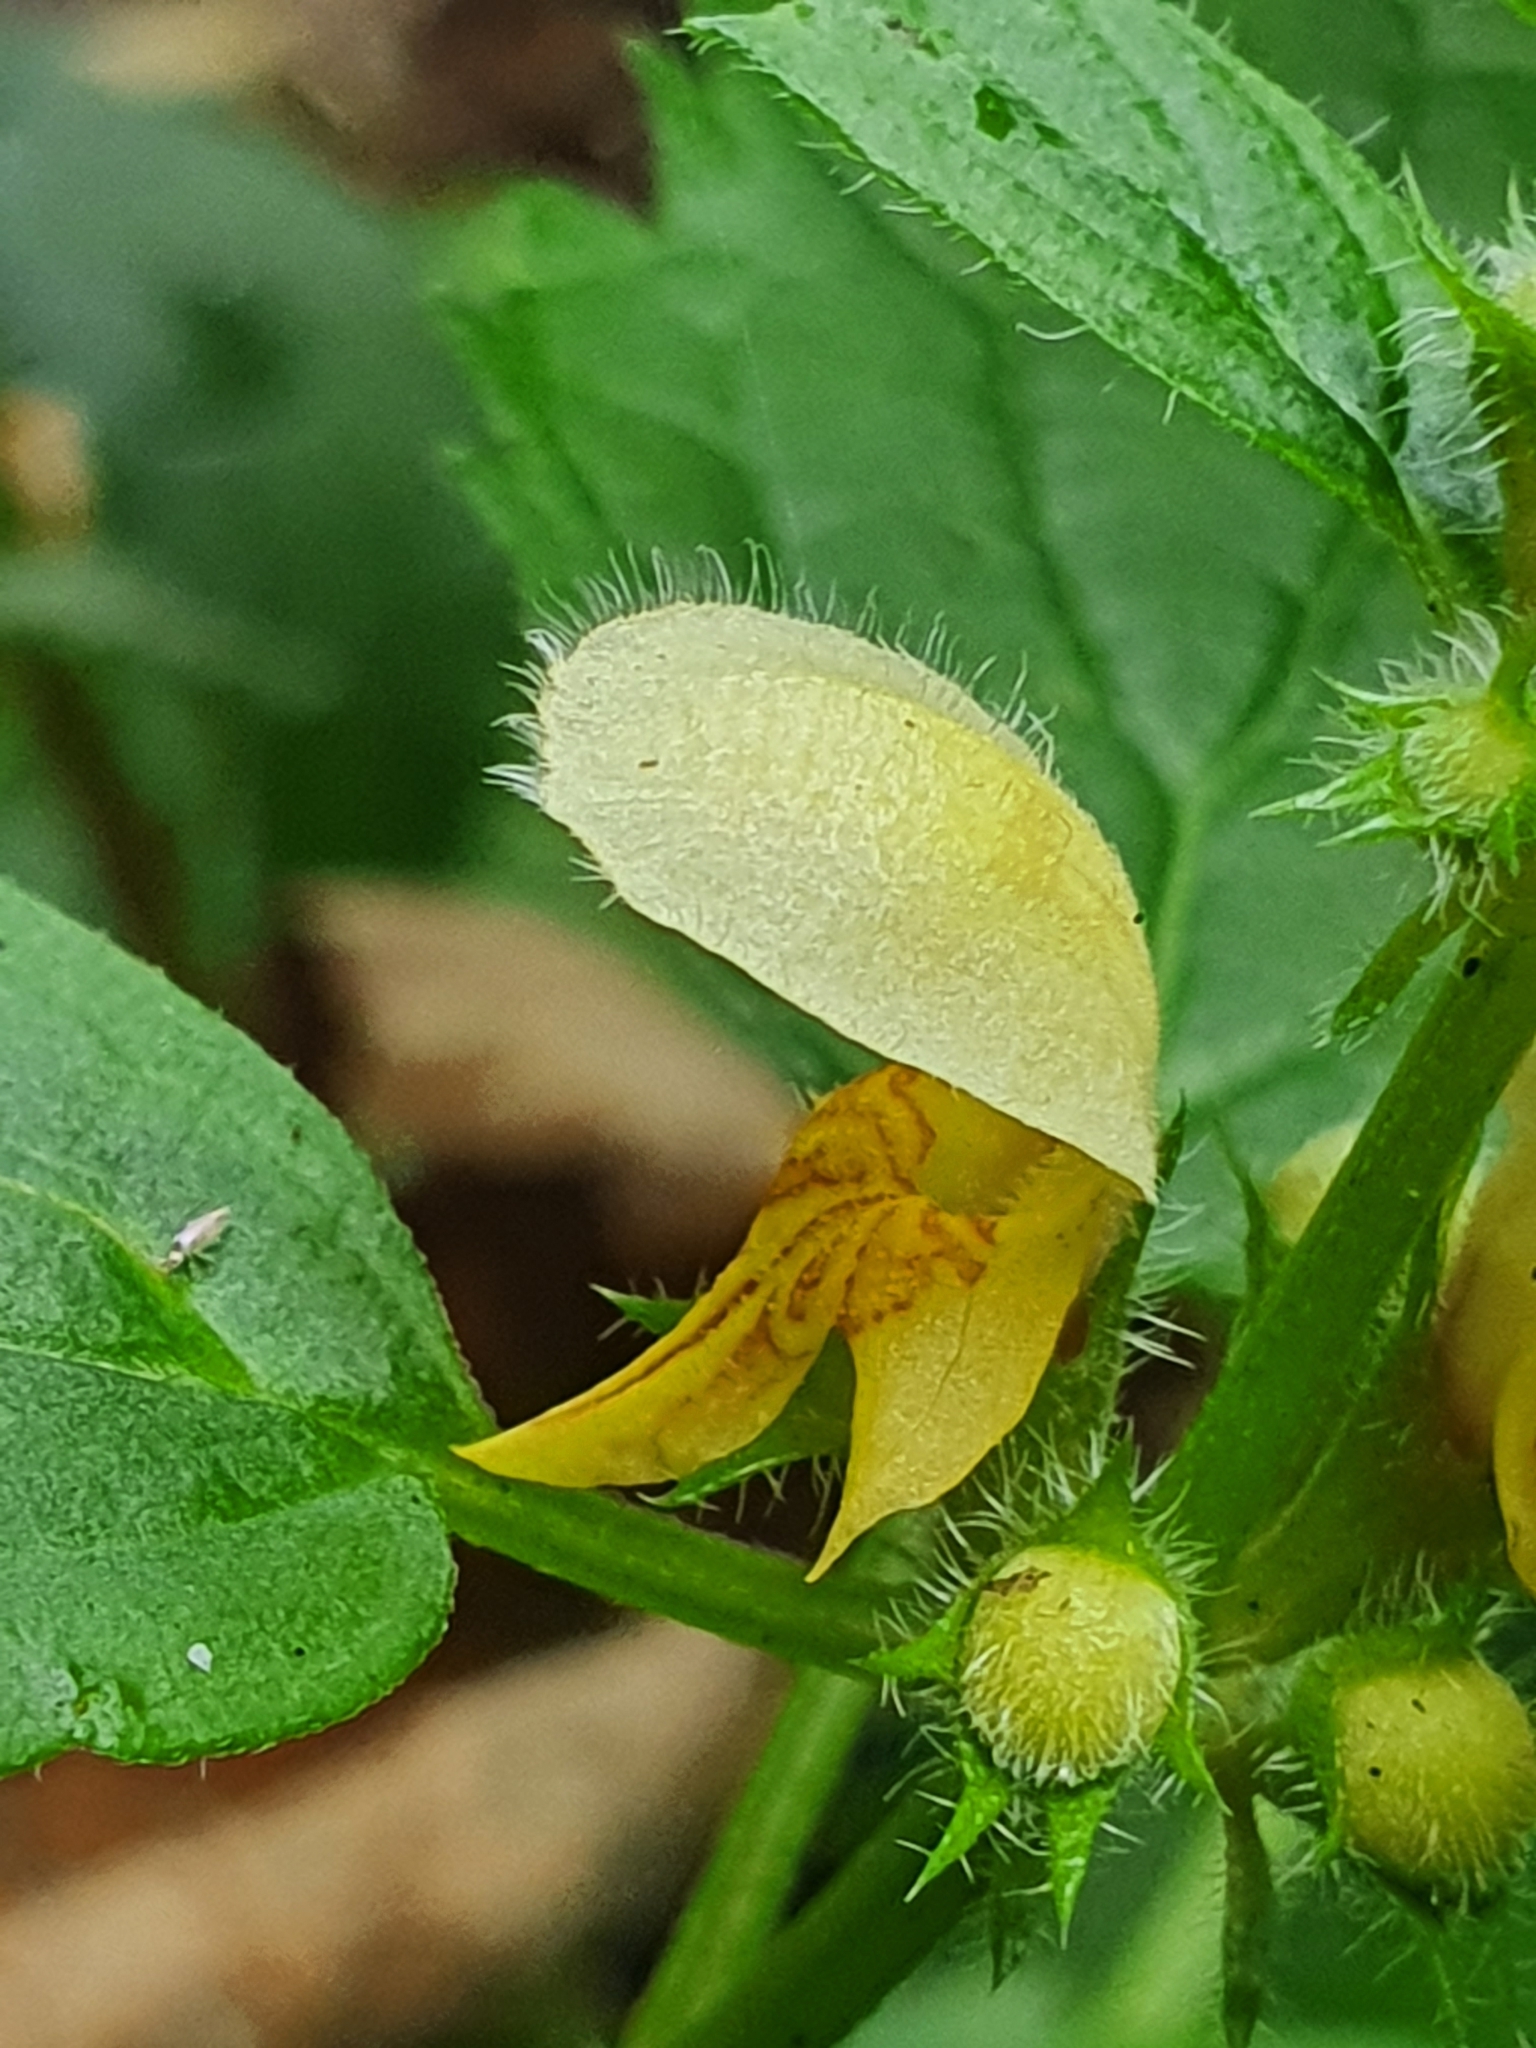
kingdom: Plantae
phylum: Tracheophyta
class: Magnoliopsida
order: Lamiales
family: Lamiaceae
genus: Lamium
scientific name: Lamium galeobdolon
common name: Yellow archangel
